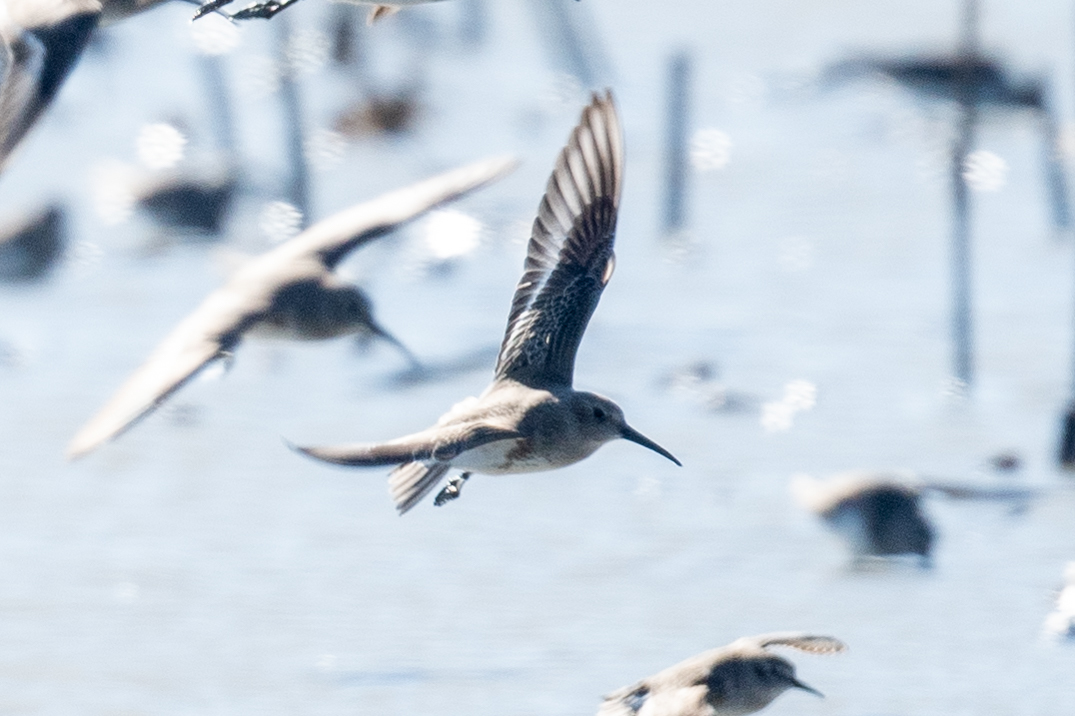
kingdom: Animalia
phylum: Chordata
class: Aves
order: Charadriiformes
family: Scolopacidae
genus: Calidris
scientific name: Calidris alpina
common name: Dunlin
